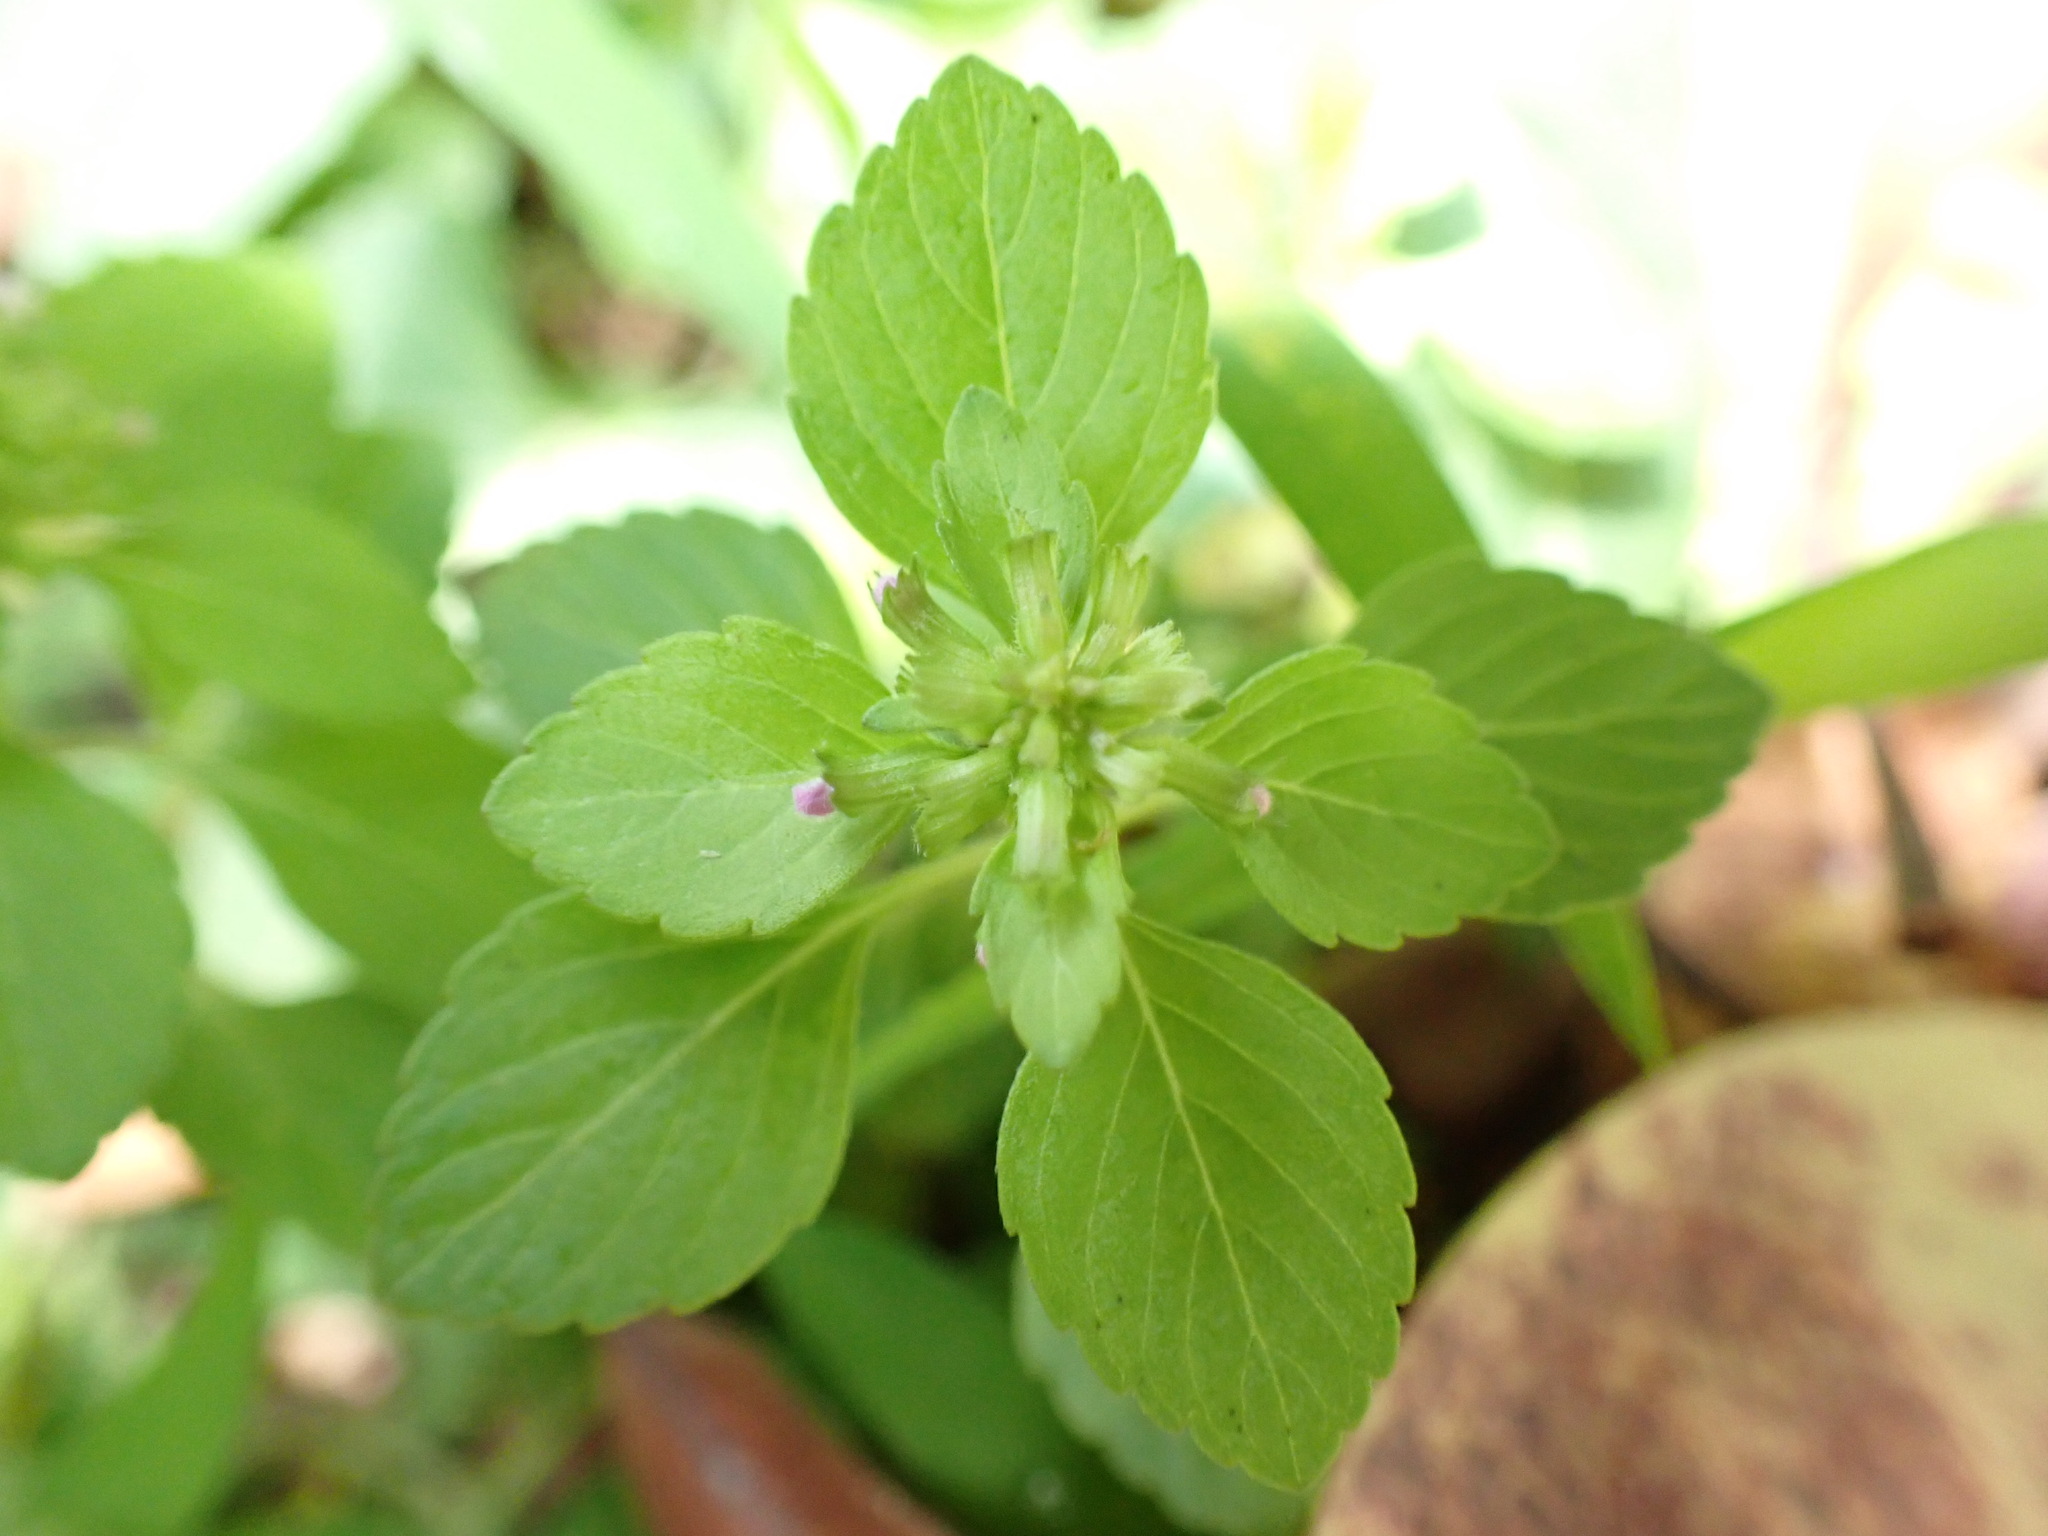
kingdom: Plantae
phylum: Tracheophyta
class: Magnoliopsida
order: Lamiales
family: Lamiaceae
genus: Clinopodium
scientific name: Clinopodium gracile
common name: Slender wild basil
